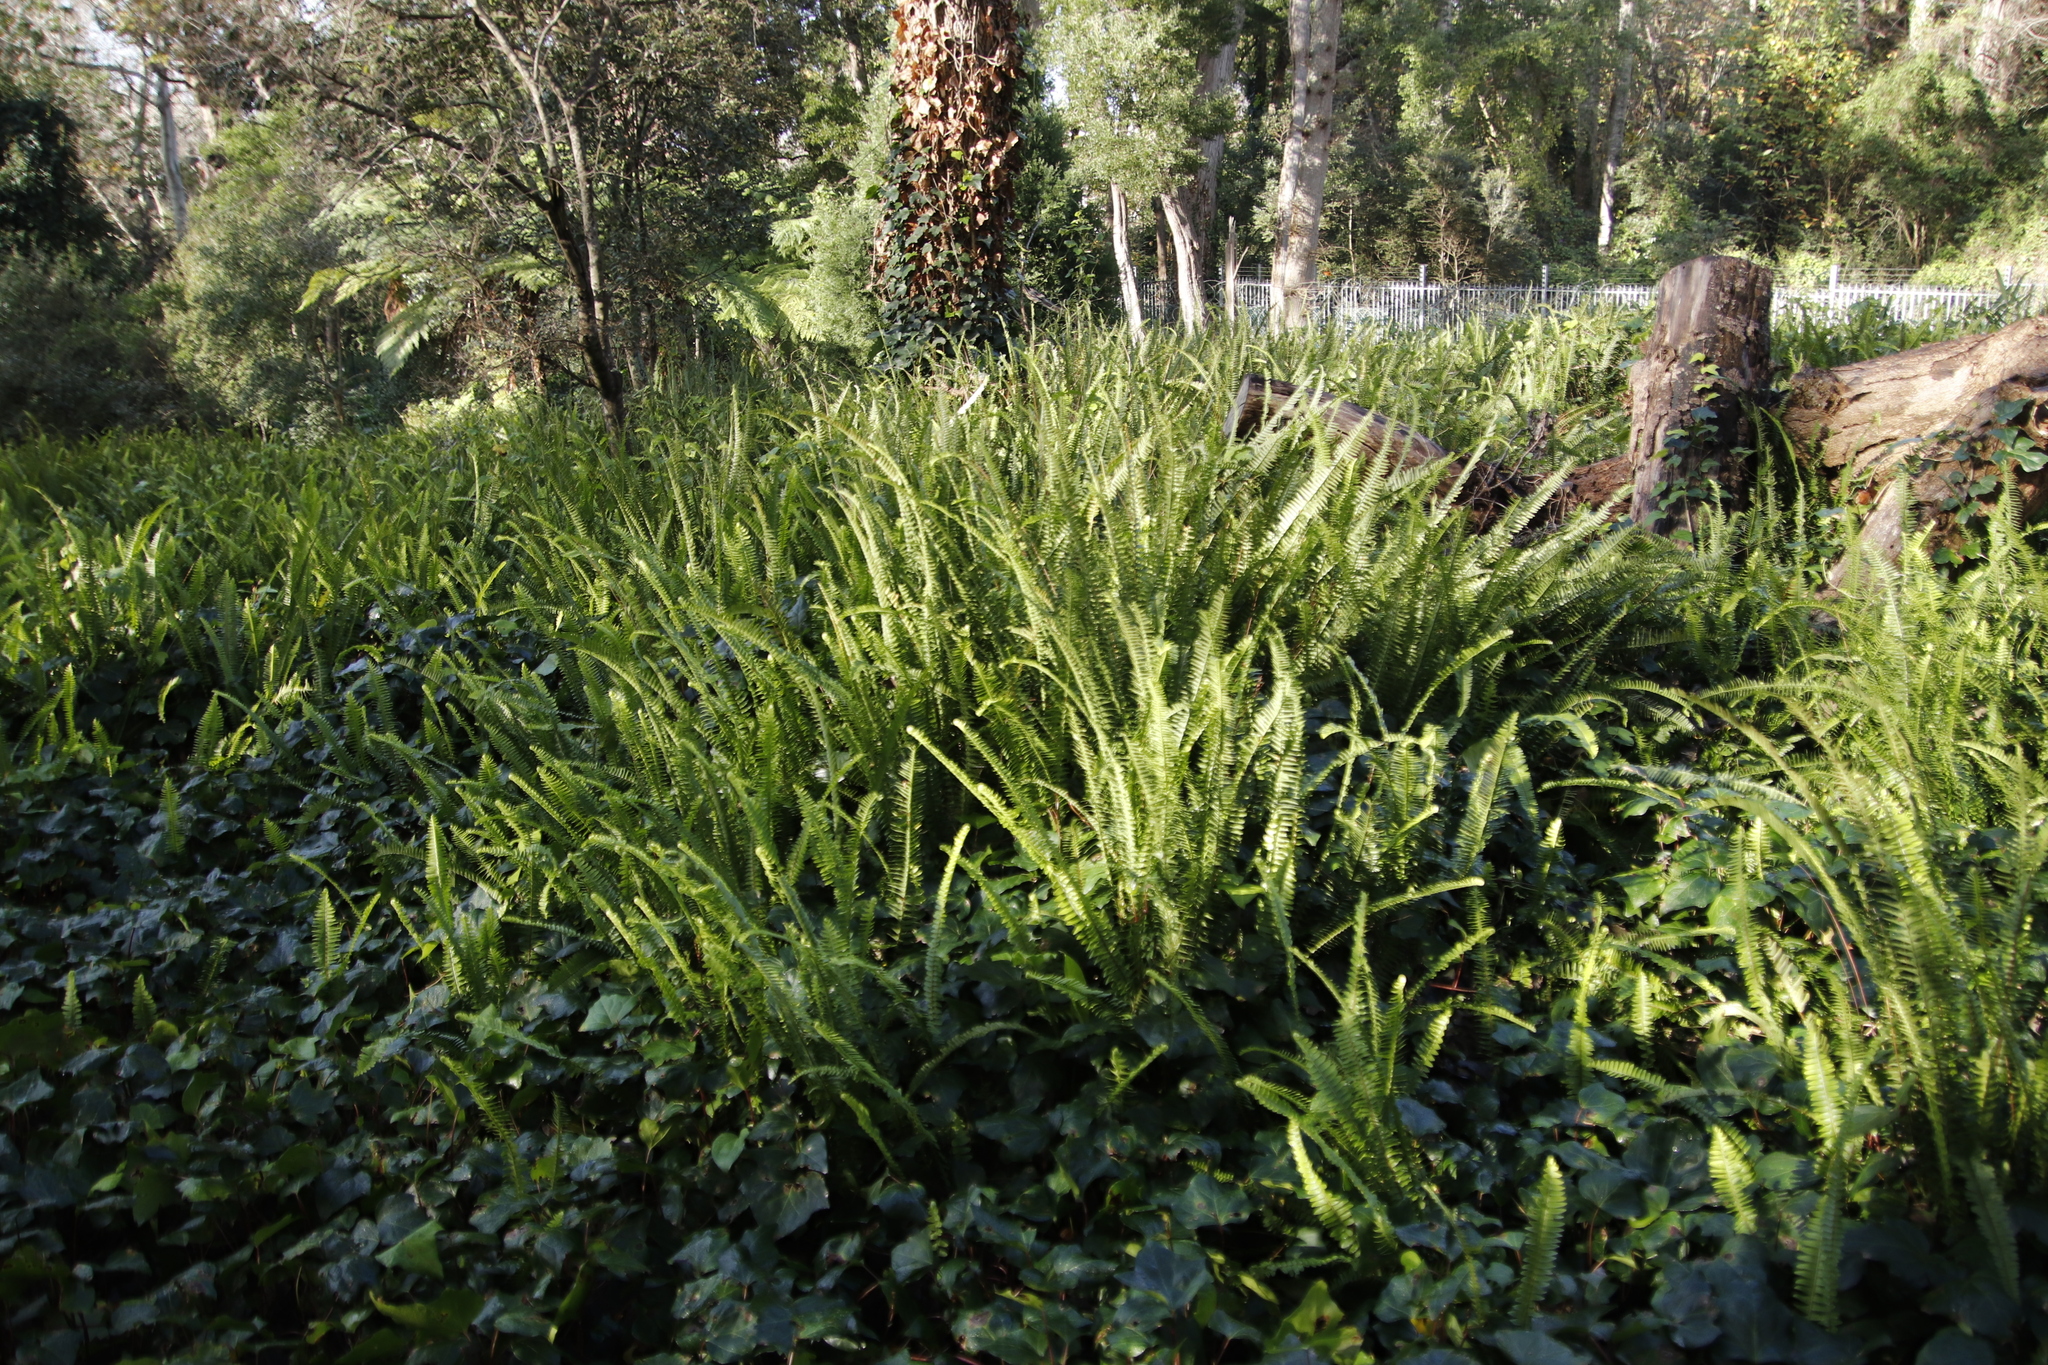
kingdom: Plantae
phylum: Tracheophyta
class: Polypodiopsida
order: Polypodiales
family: Nephrolepidaceae
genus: Nephrolepis
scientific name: Nephrolepis cordifolia
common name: Narrow swordfern
